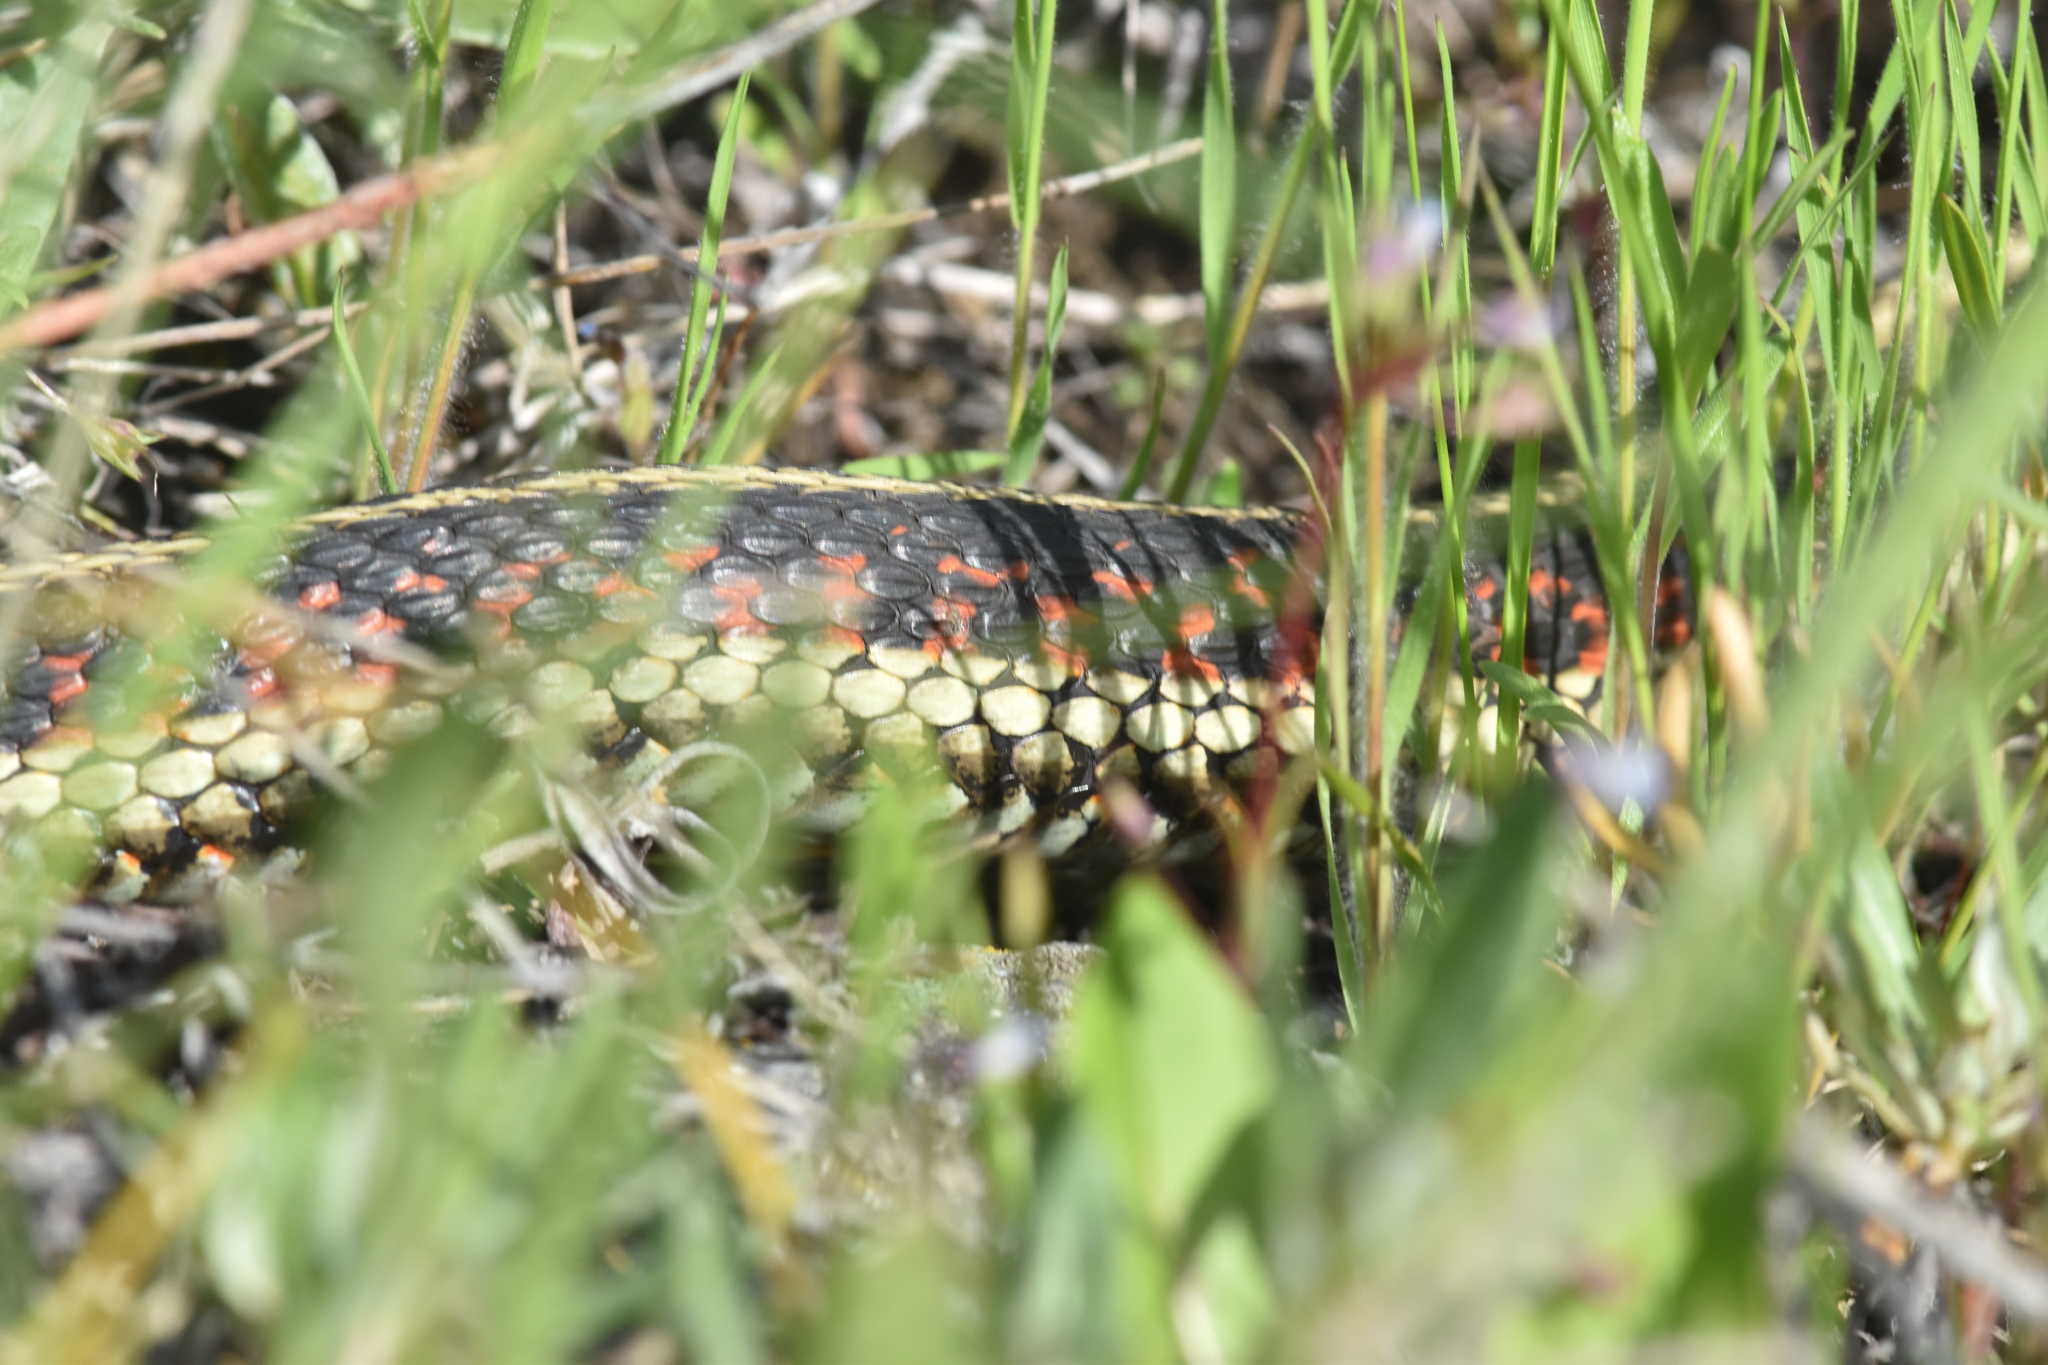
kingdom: Animalia
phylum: Chordata
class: Squamata
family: Colubridae
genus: Thamnophis
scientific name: Thamnophis sirtalis
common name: Common garter snake
